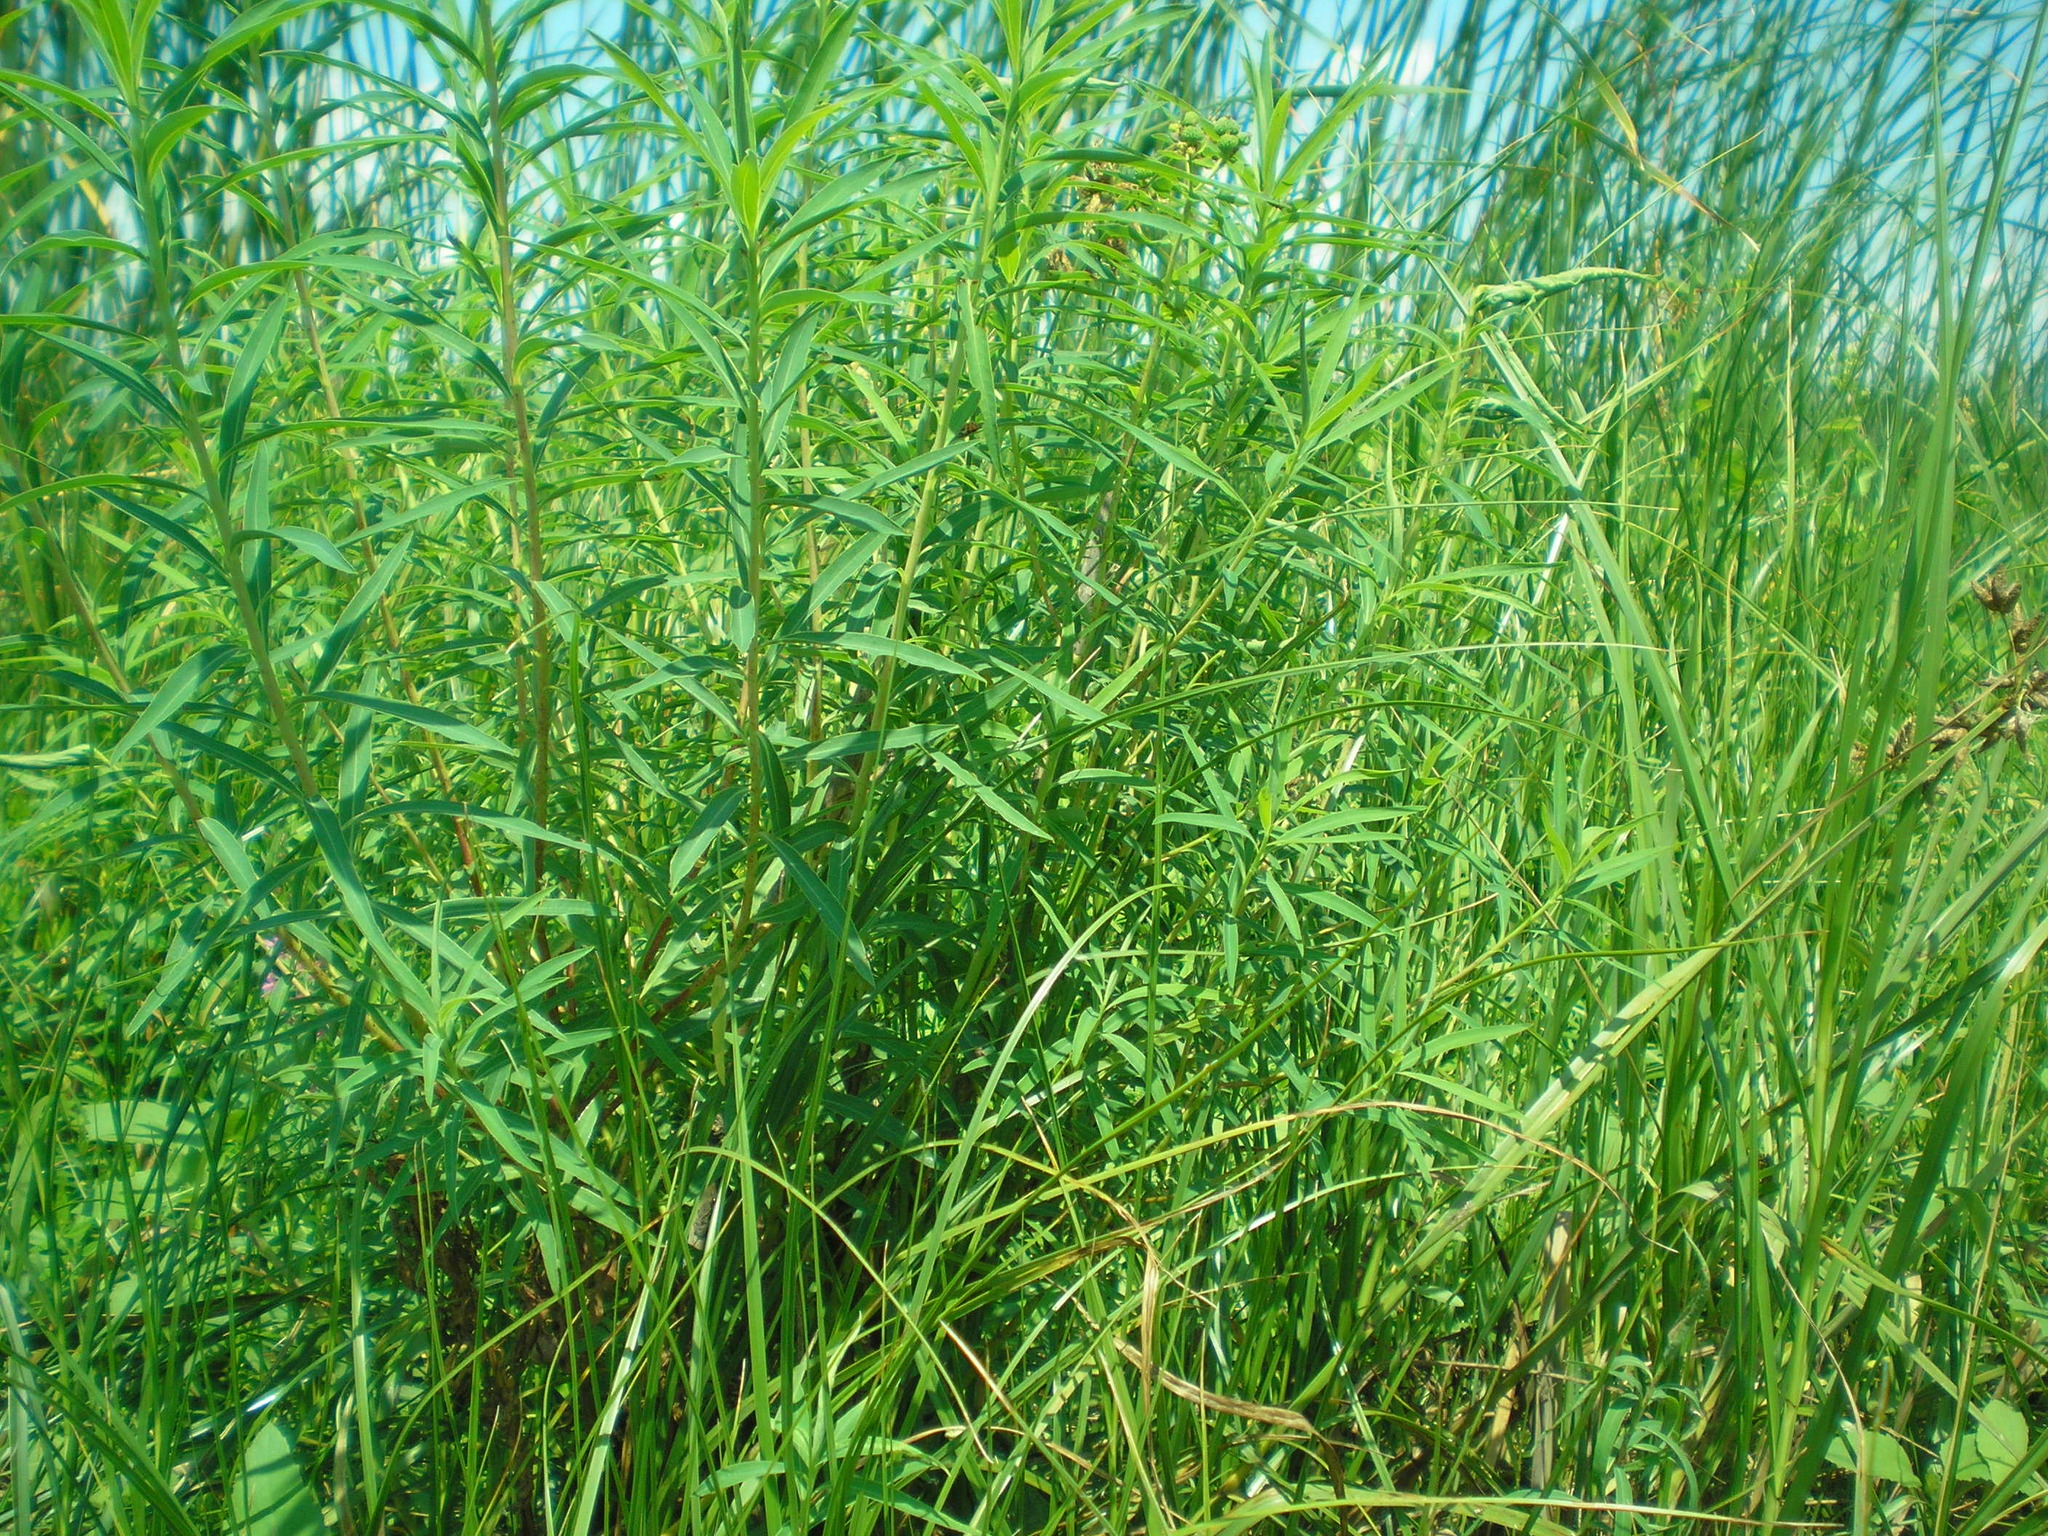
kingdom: Plantae
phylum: Tracheophyta
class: Magnoliopsida
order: Malpighiales
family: Euphorbiaceae
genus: Euphorbia
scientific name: Euphorbia palustris
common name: Marsh spurge
